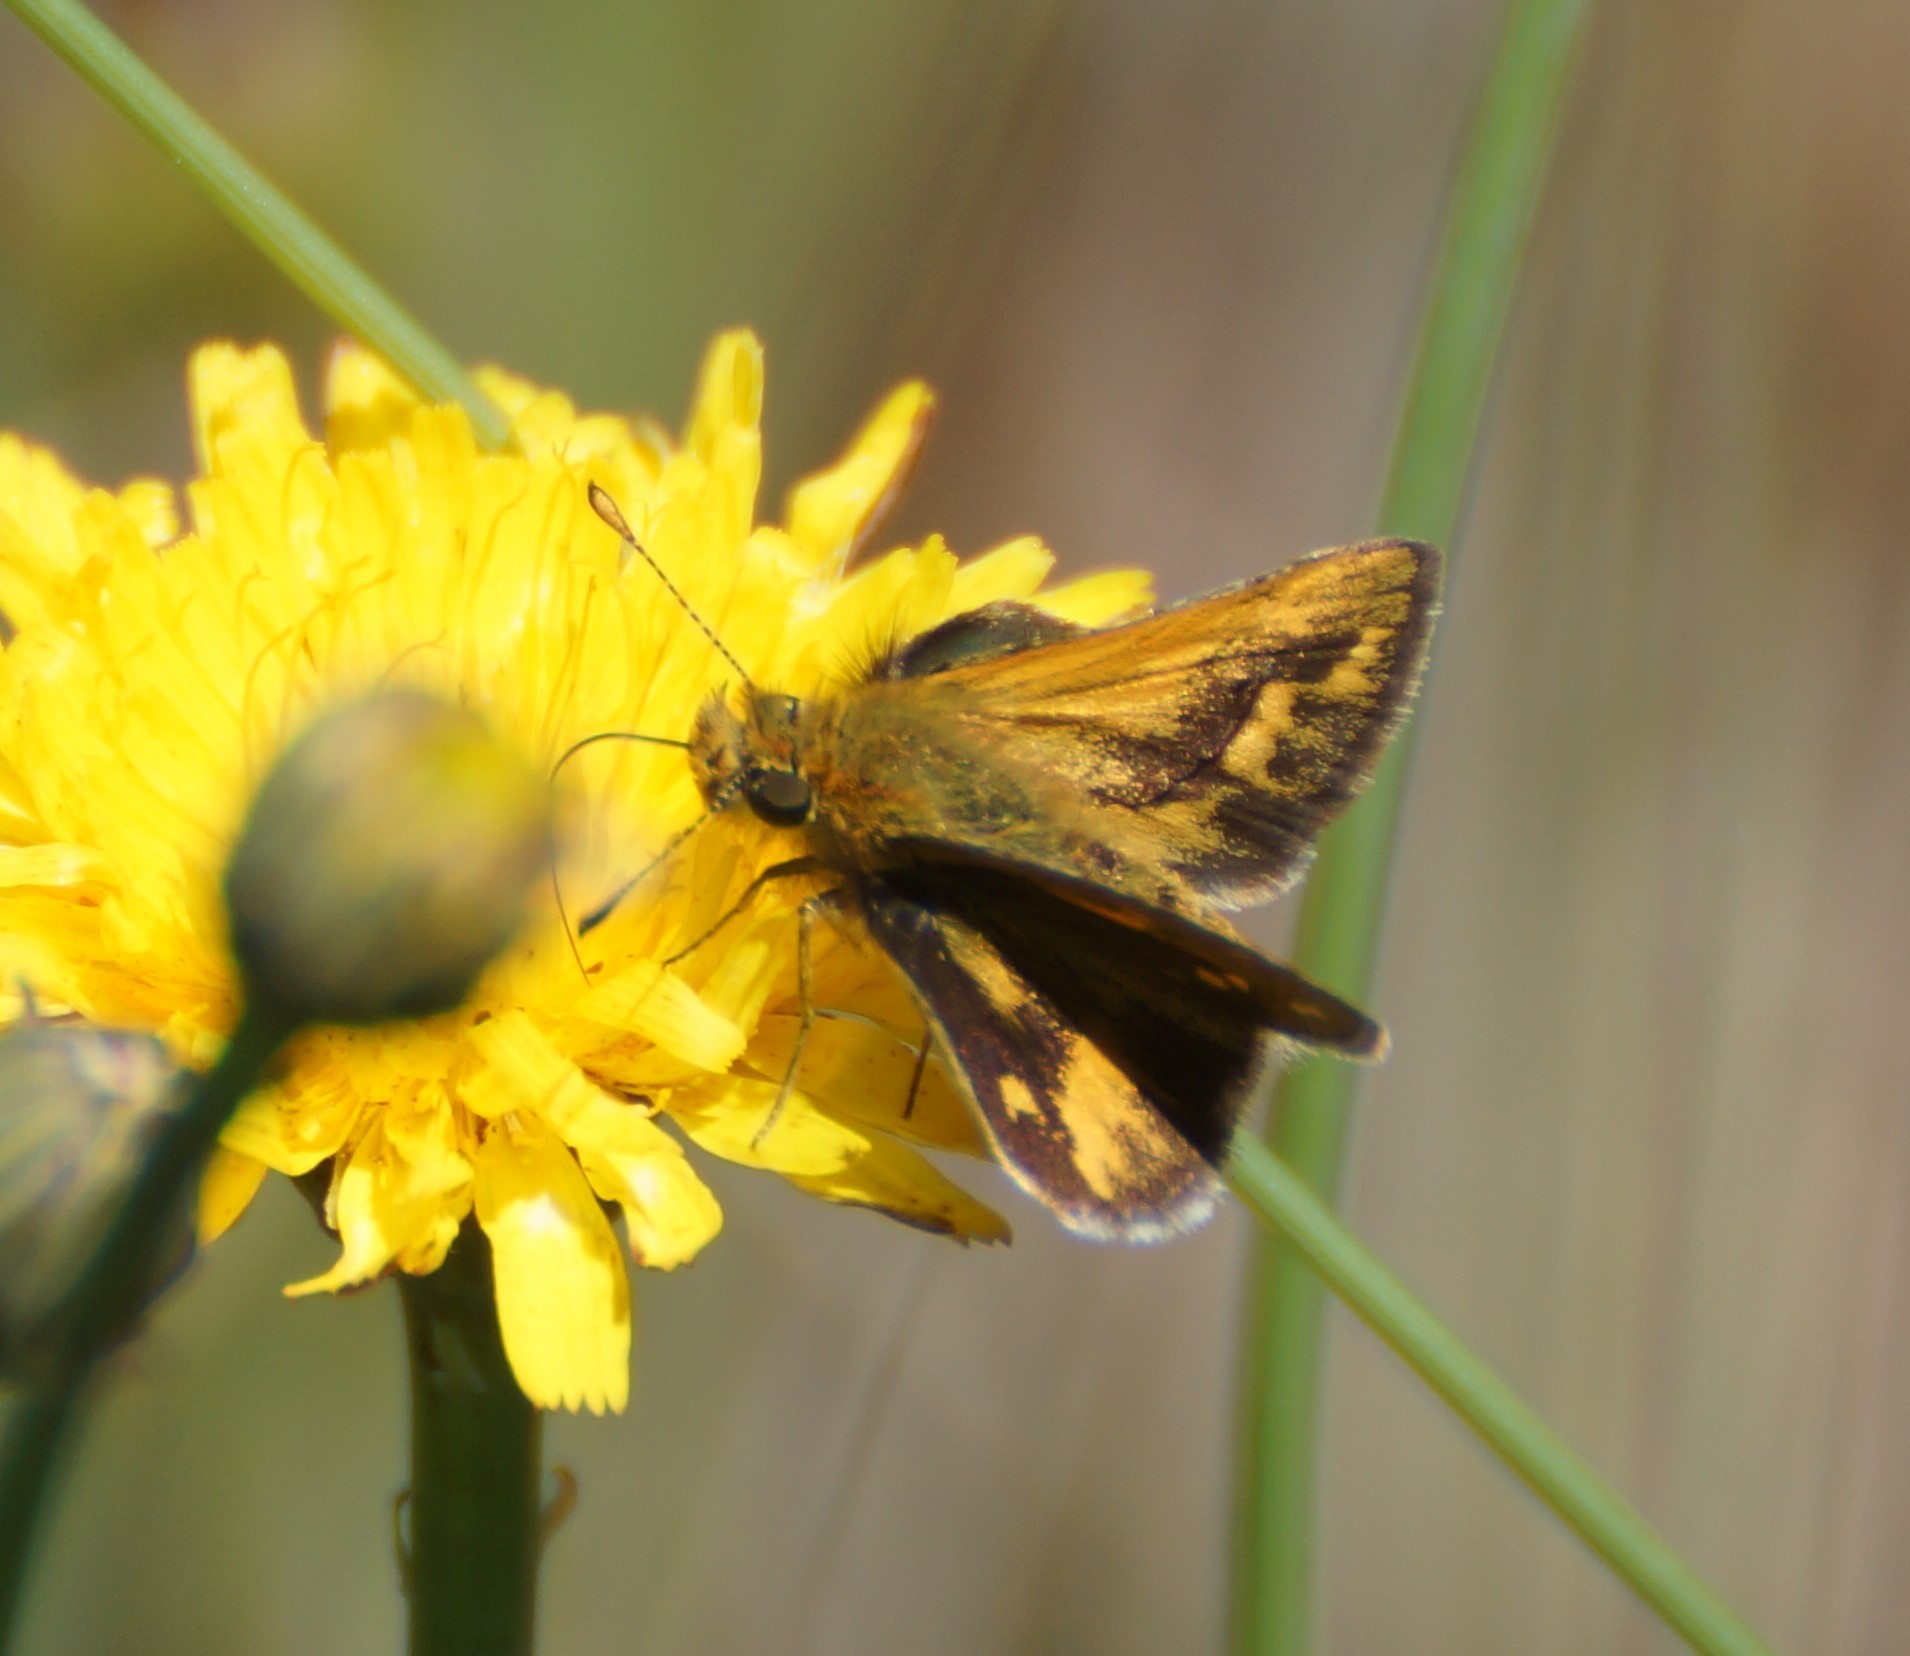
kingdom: Animalia
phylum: Arthropoda
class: Insecta
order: Lepidoptera
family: Hesperiidae
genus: Ocybadistes
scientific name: Ocybadistes walkeri
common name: Yellow-banded dart
